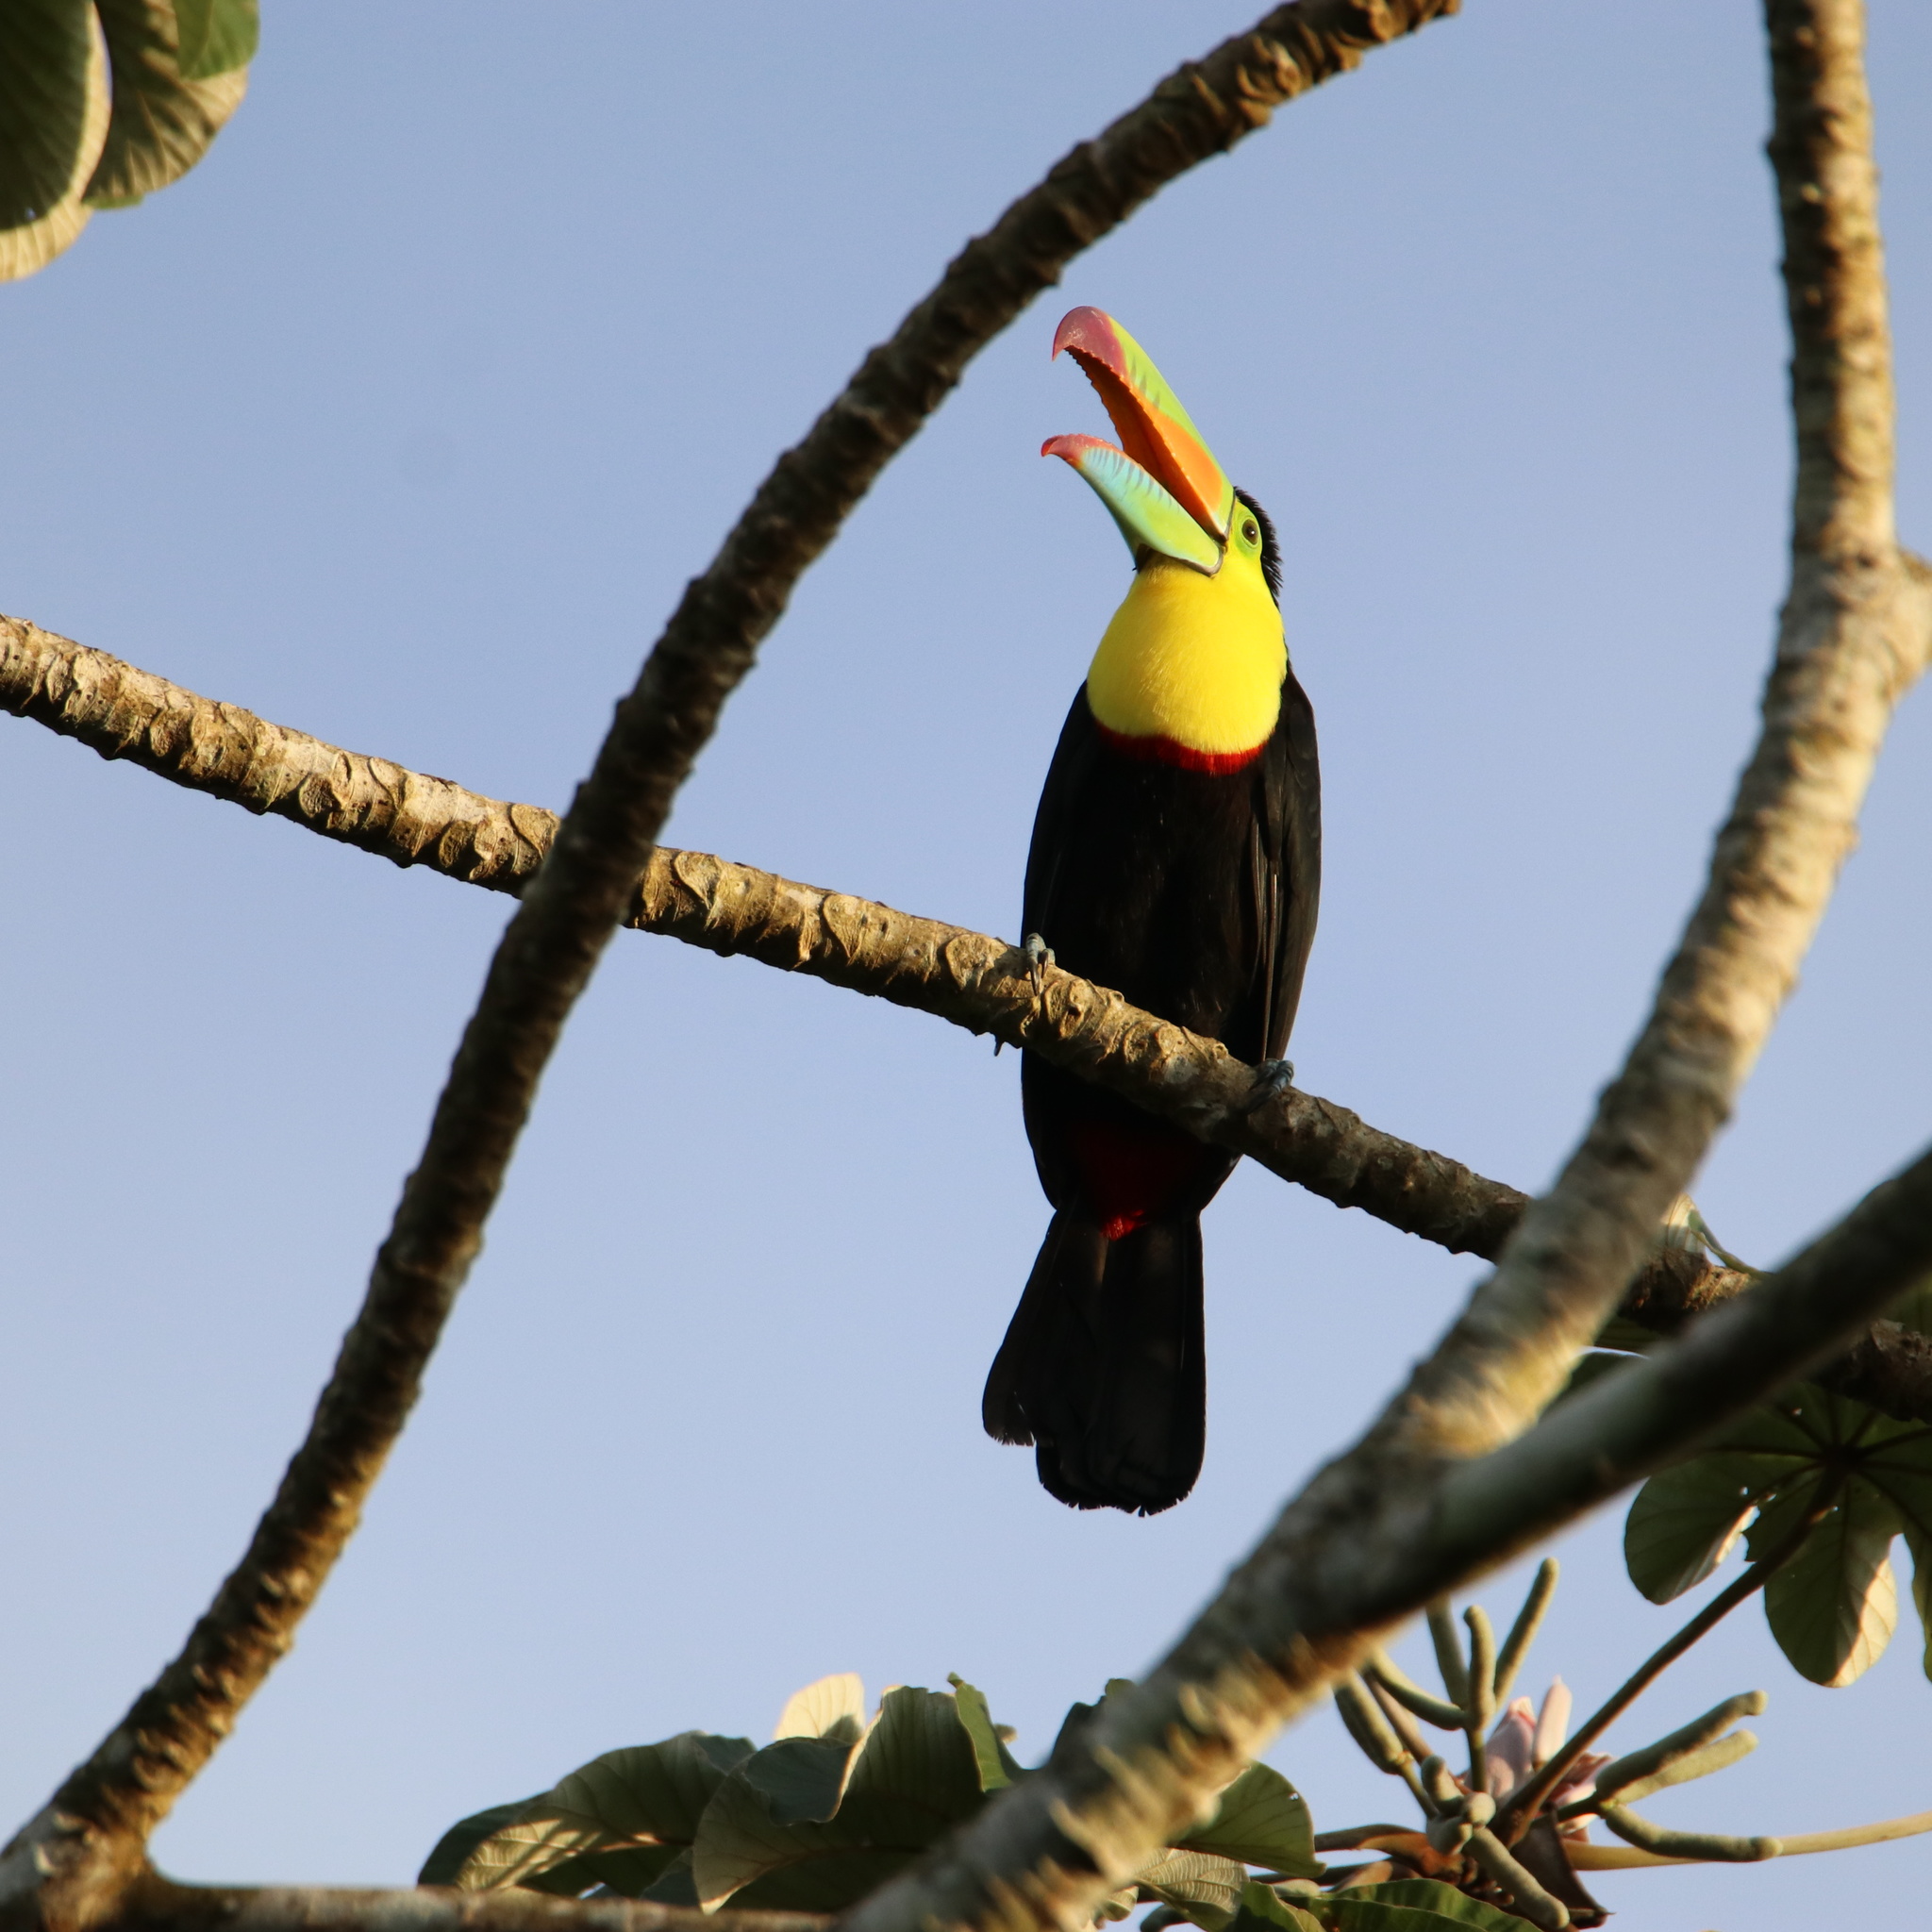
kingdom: Animalia
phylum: Chordata
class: Aves
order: Piciformes
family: Ramphastidae
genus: Ramphastos
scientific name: Ramphastos sulfuratus
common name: Keel-billed toucan
